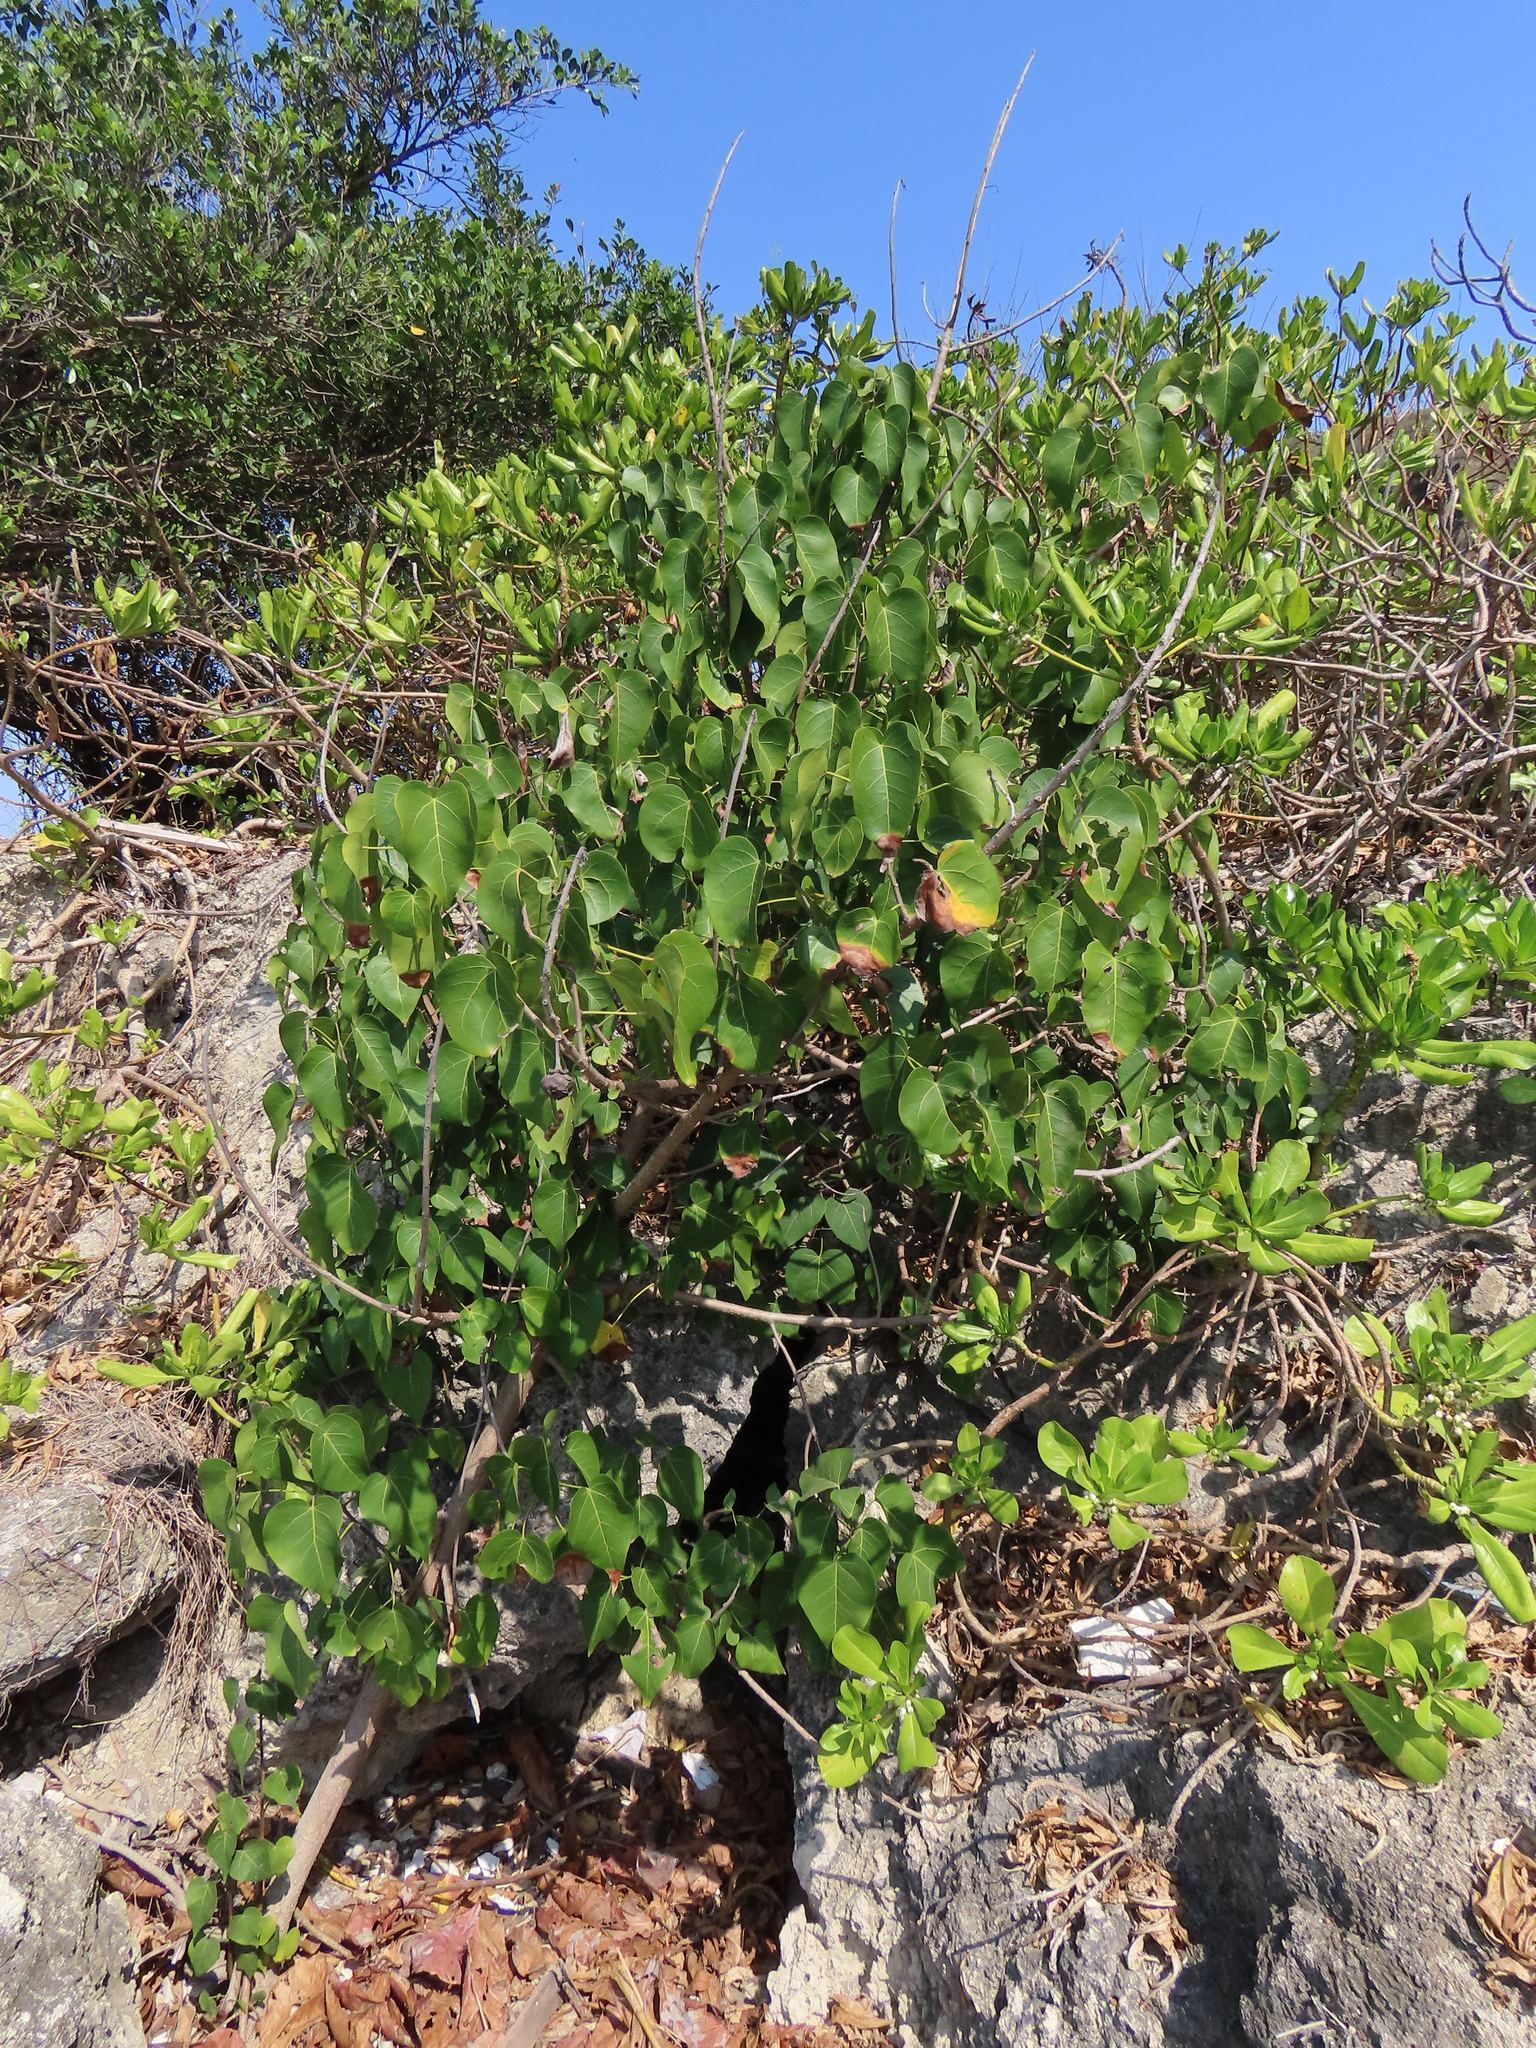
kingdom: Plantae
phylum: Tracheophyta
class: Magnoliopsida
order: Asterales
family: Goodeniaceae
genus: Scaevola
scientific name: Scaevola taccada
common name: Sea lettucetree
